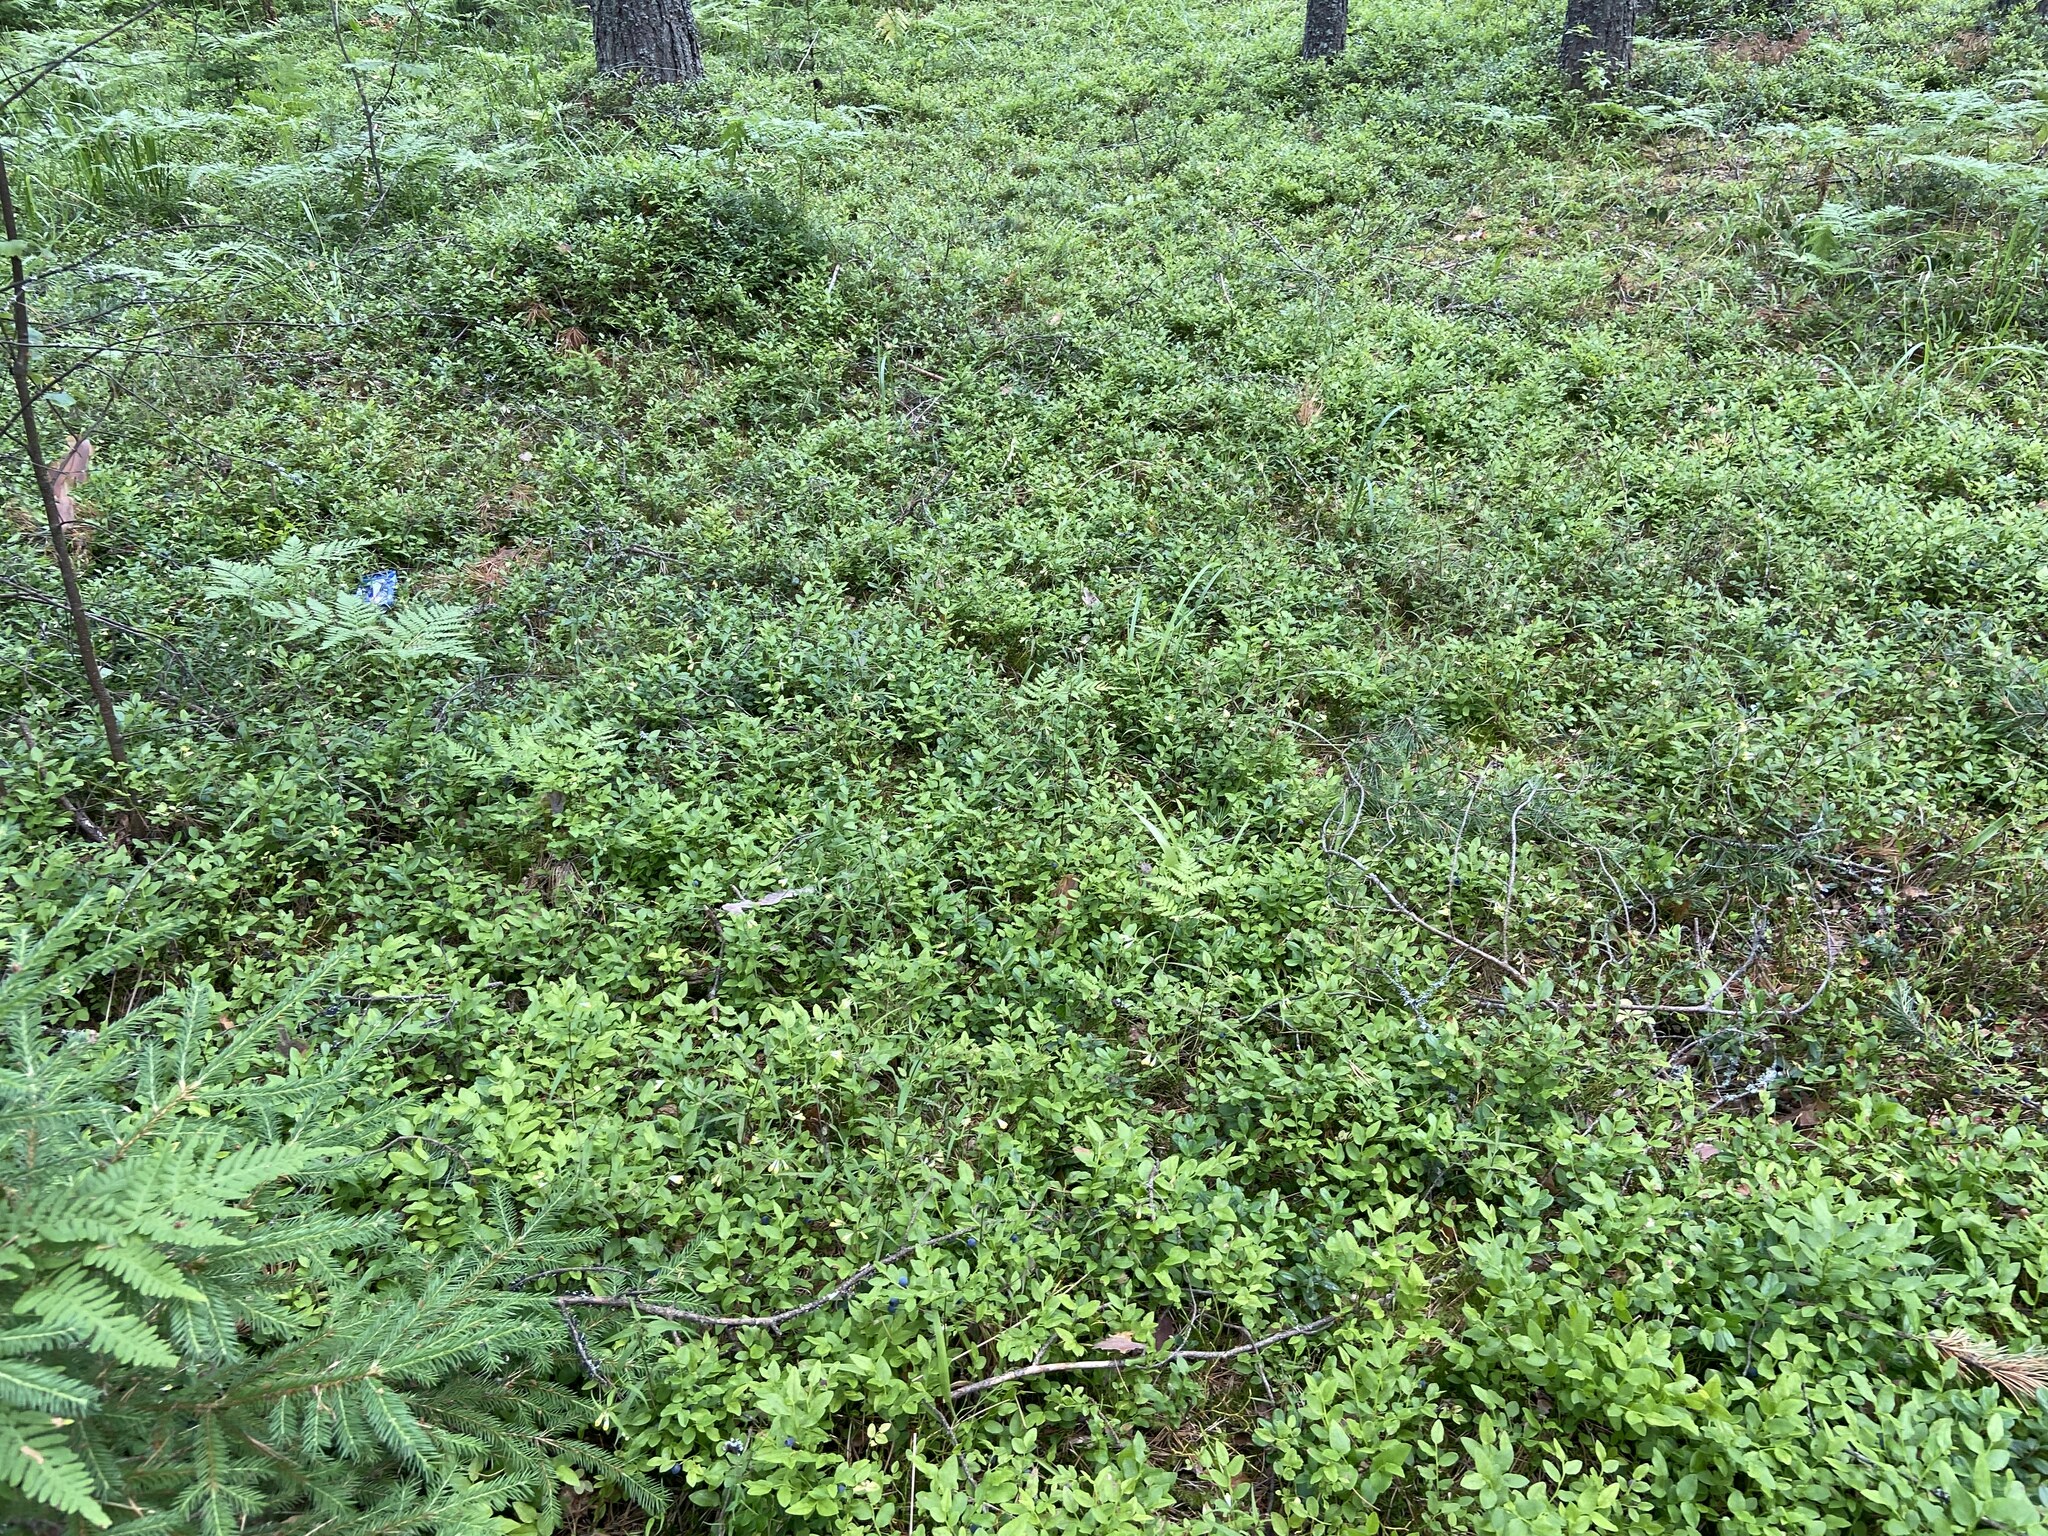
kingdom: Plantae
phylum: Tracheophyta
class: Magnoliopsida
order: Ericales
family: Ericaceae
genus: Vaccinium
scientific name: Vaccinium myrtillus
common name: Bilberry
